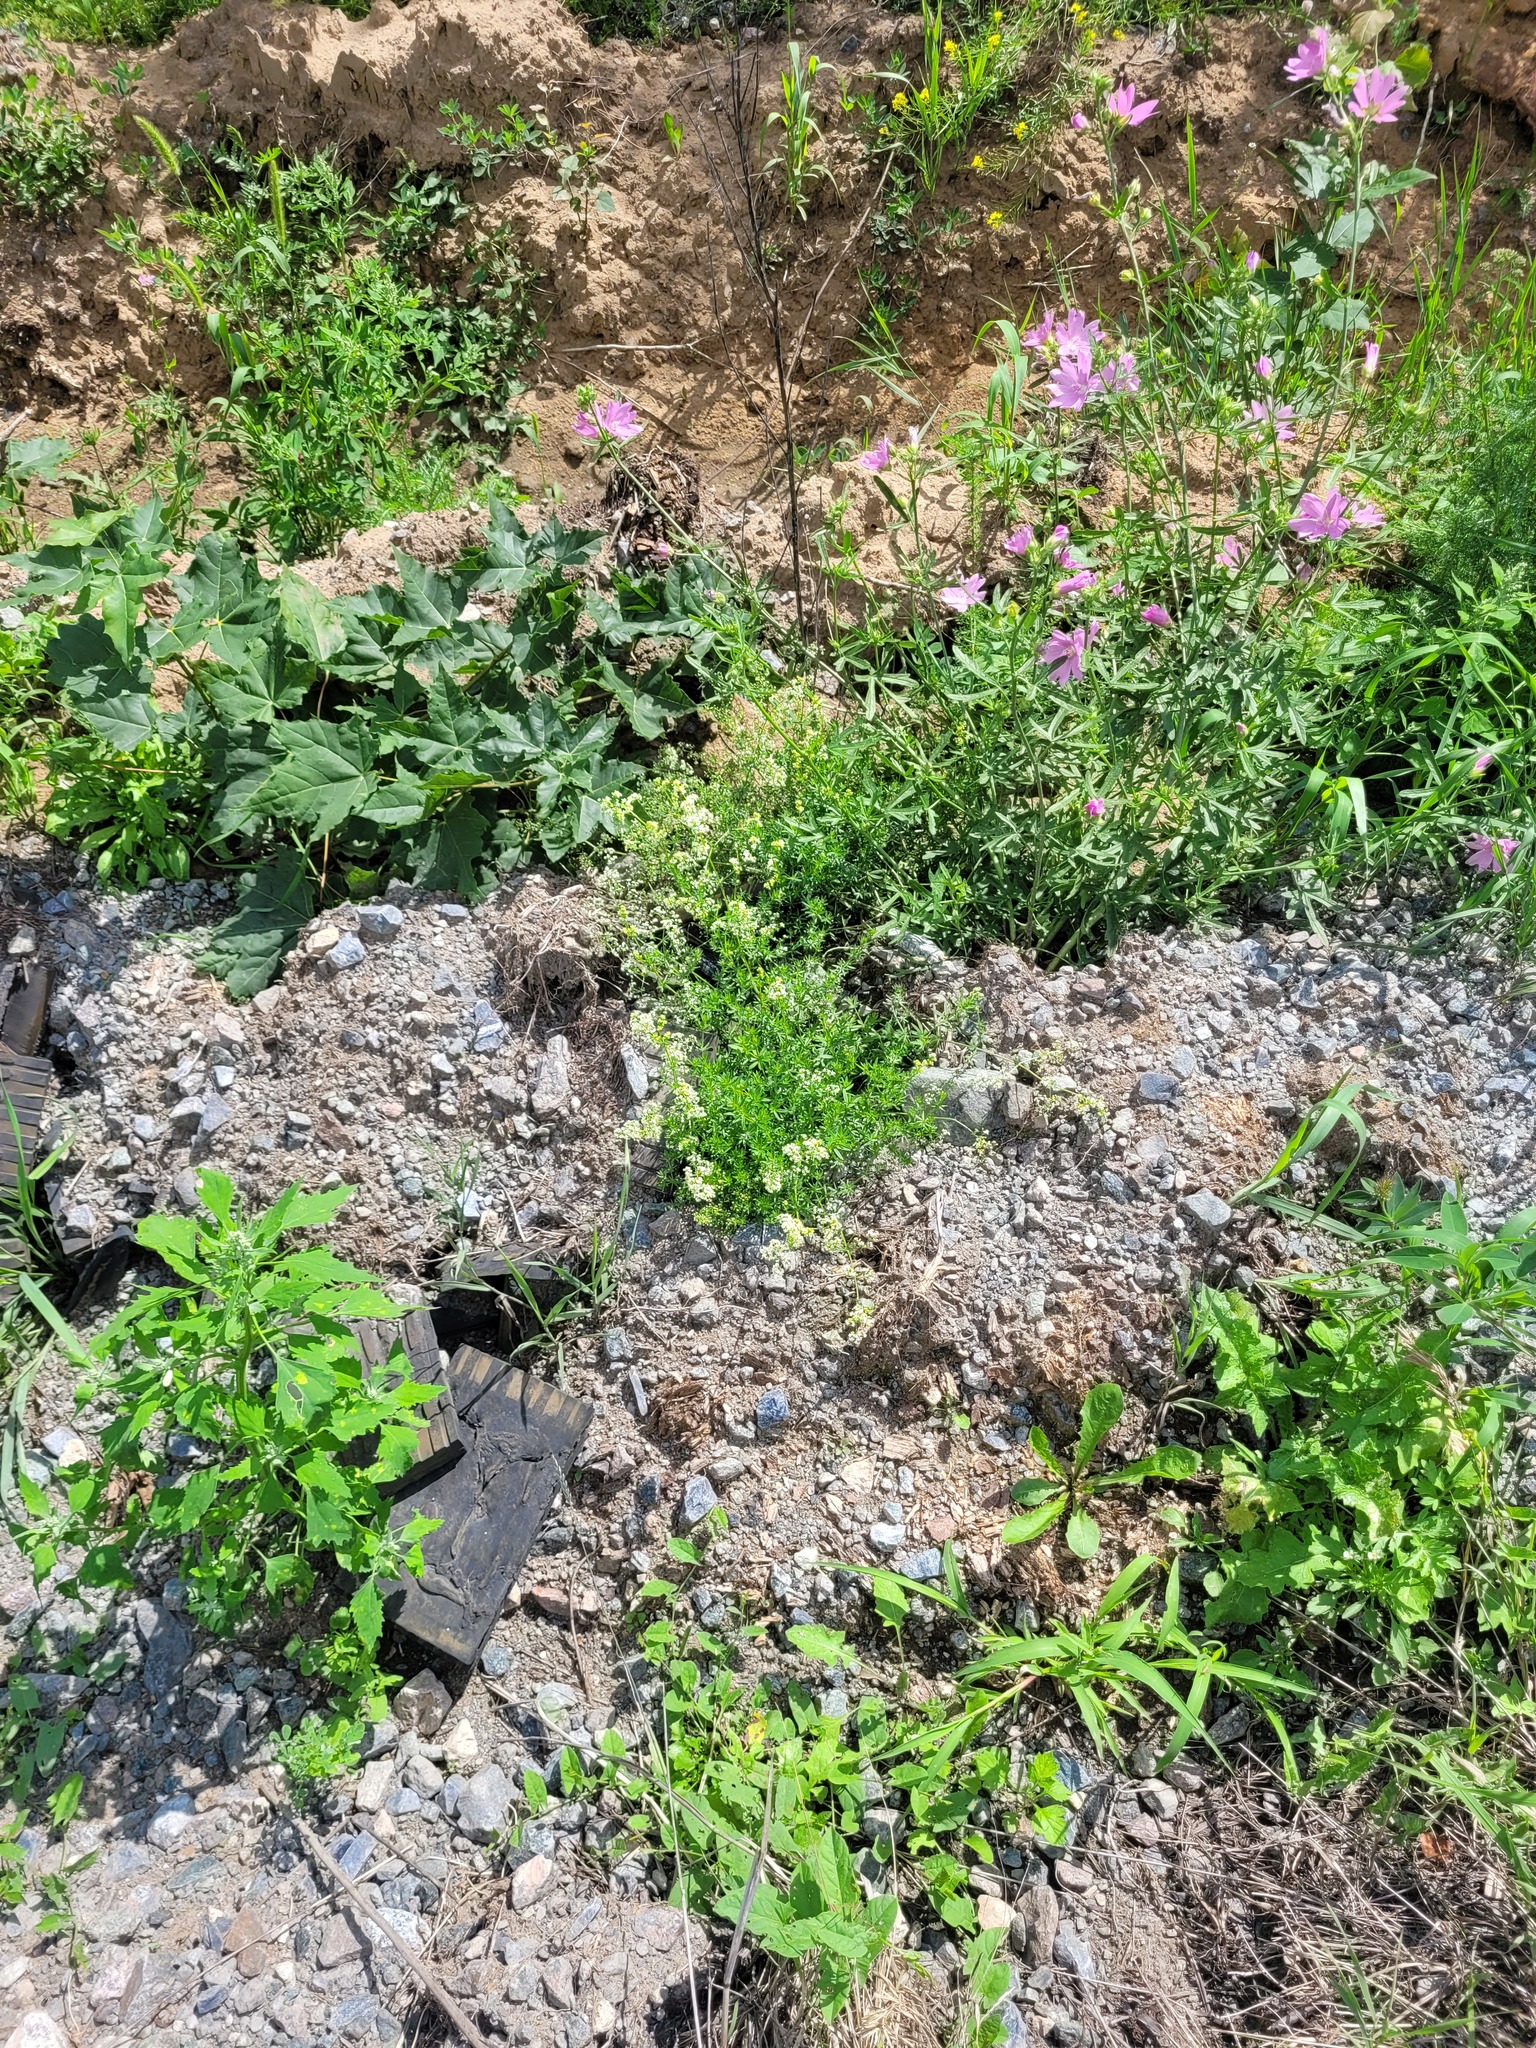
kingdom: Plantae
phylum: Tracheophyta
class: Magnoliopsida
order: Gentianales
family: Rubiaceae
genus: Galium
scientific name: Galium mollugo
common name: Hedge bedstraw
